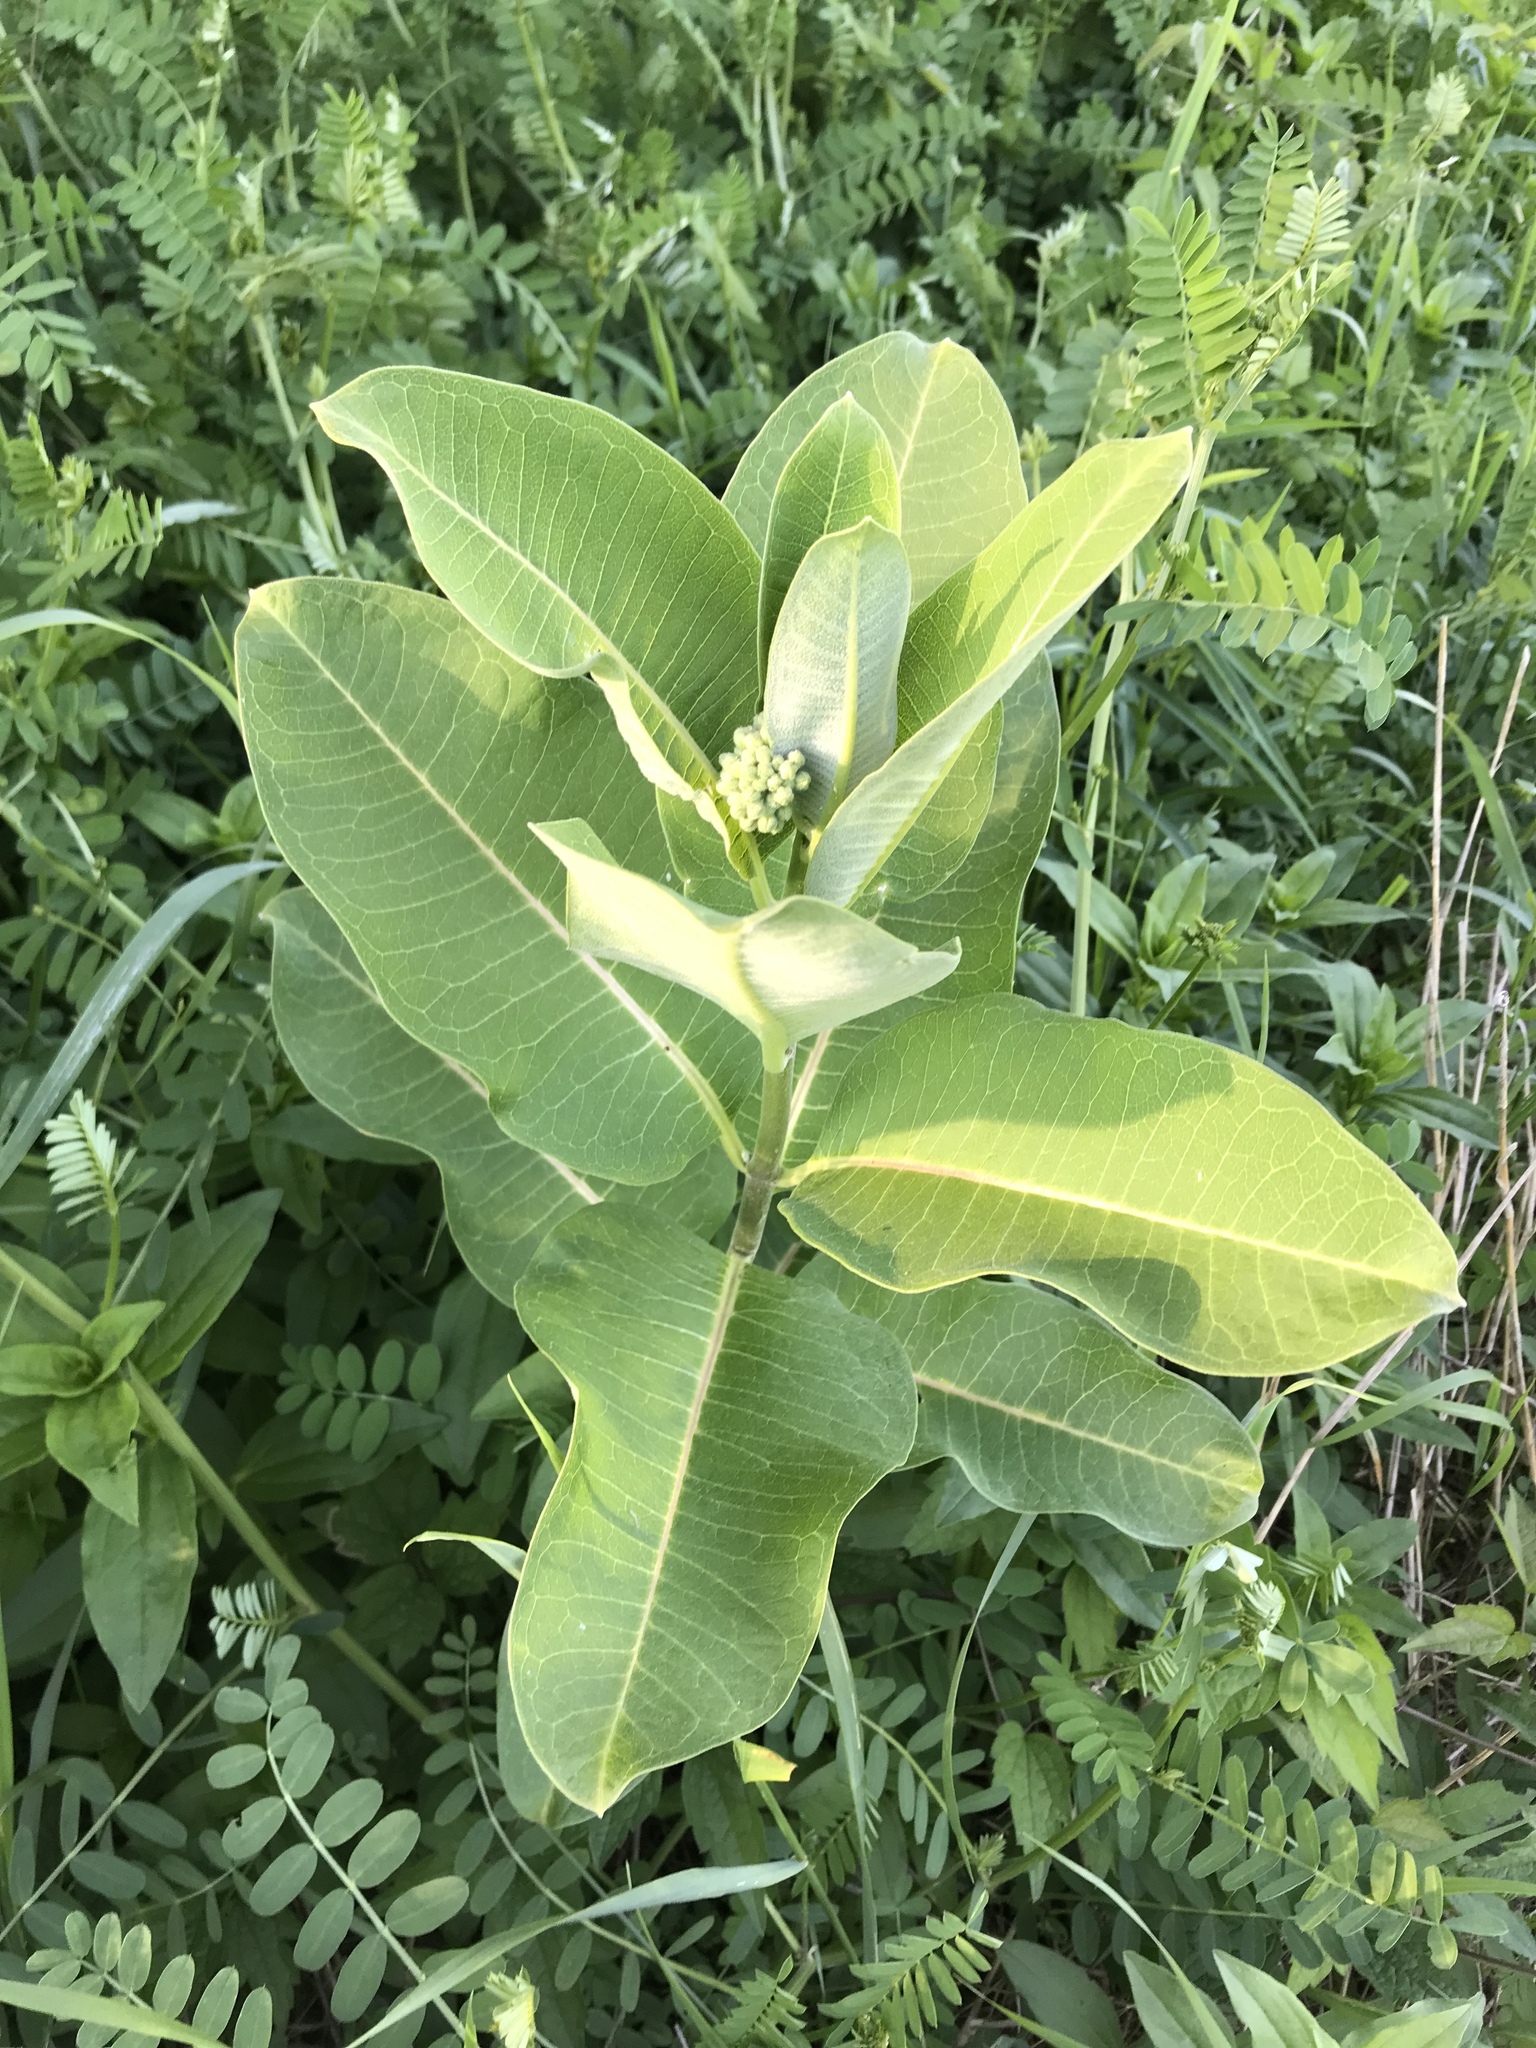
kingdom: Plantae
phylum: Tracheophyta
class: Magnoliopsida
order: Gentianales
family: Apocynaceae
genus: Asclepias
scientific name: Asclepias syriaca
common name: Common milkweed
